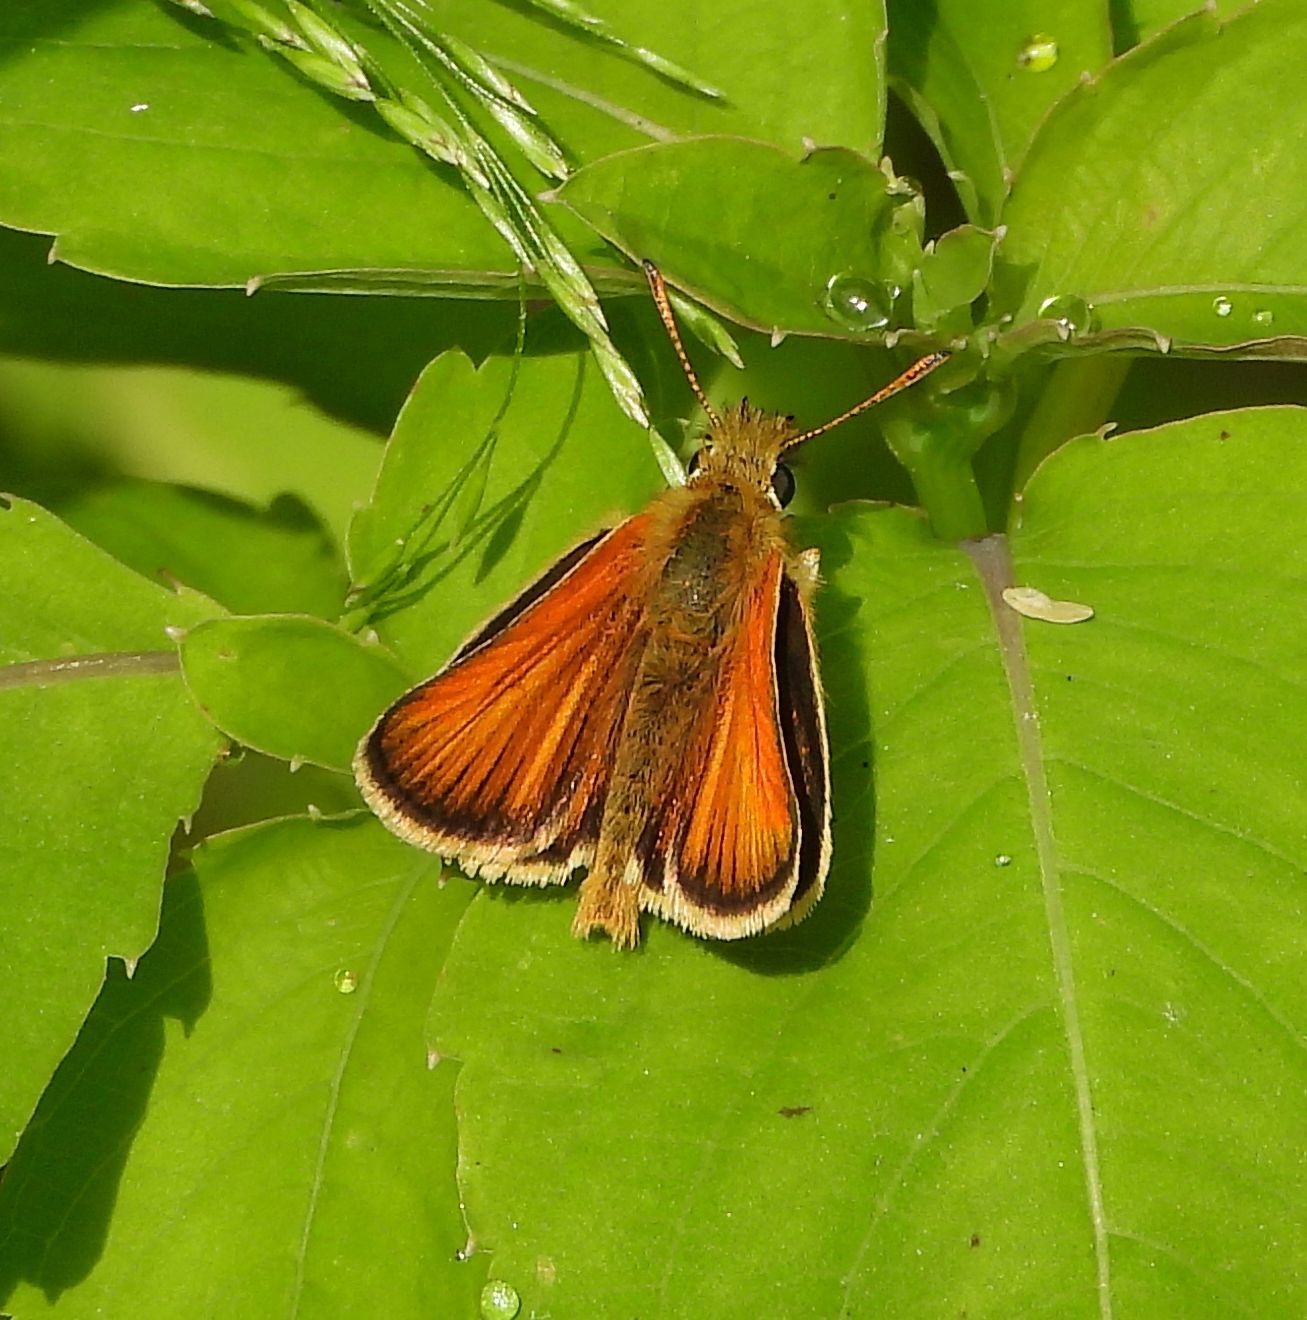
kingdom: Animalia
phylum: Arthropoda
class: Insecta
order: Lepidoptera
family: Hesperiidae
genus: Thymelicus
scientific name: Thymelicus lineola
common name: Essex skipper
